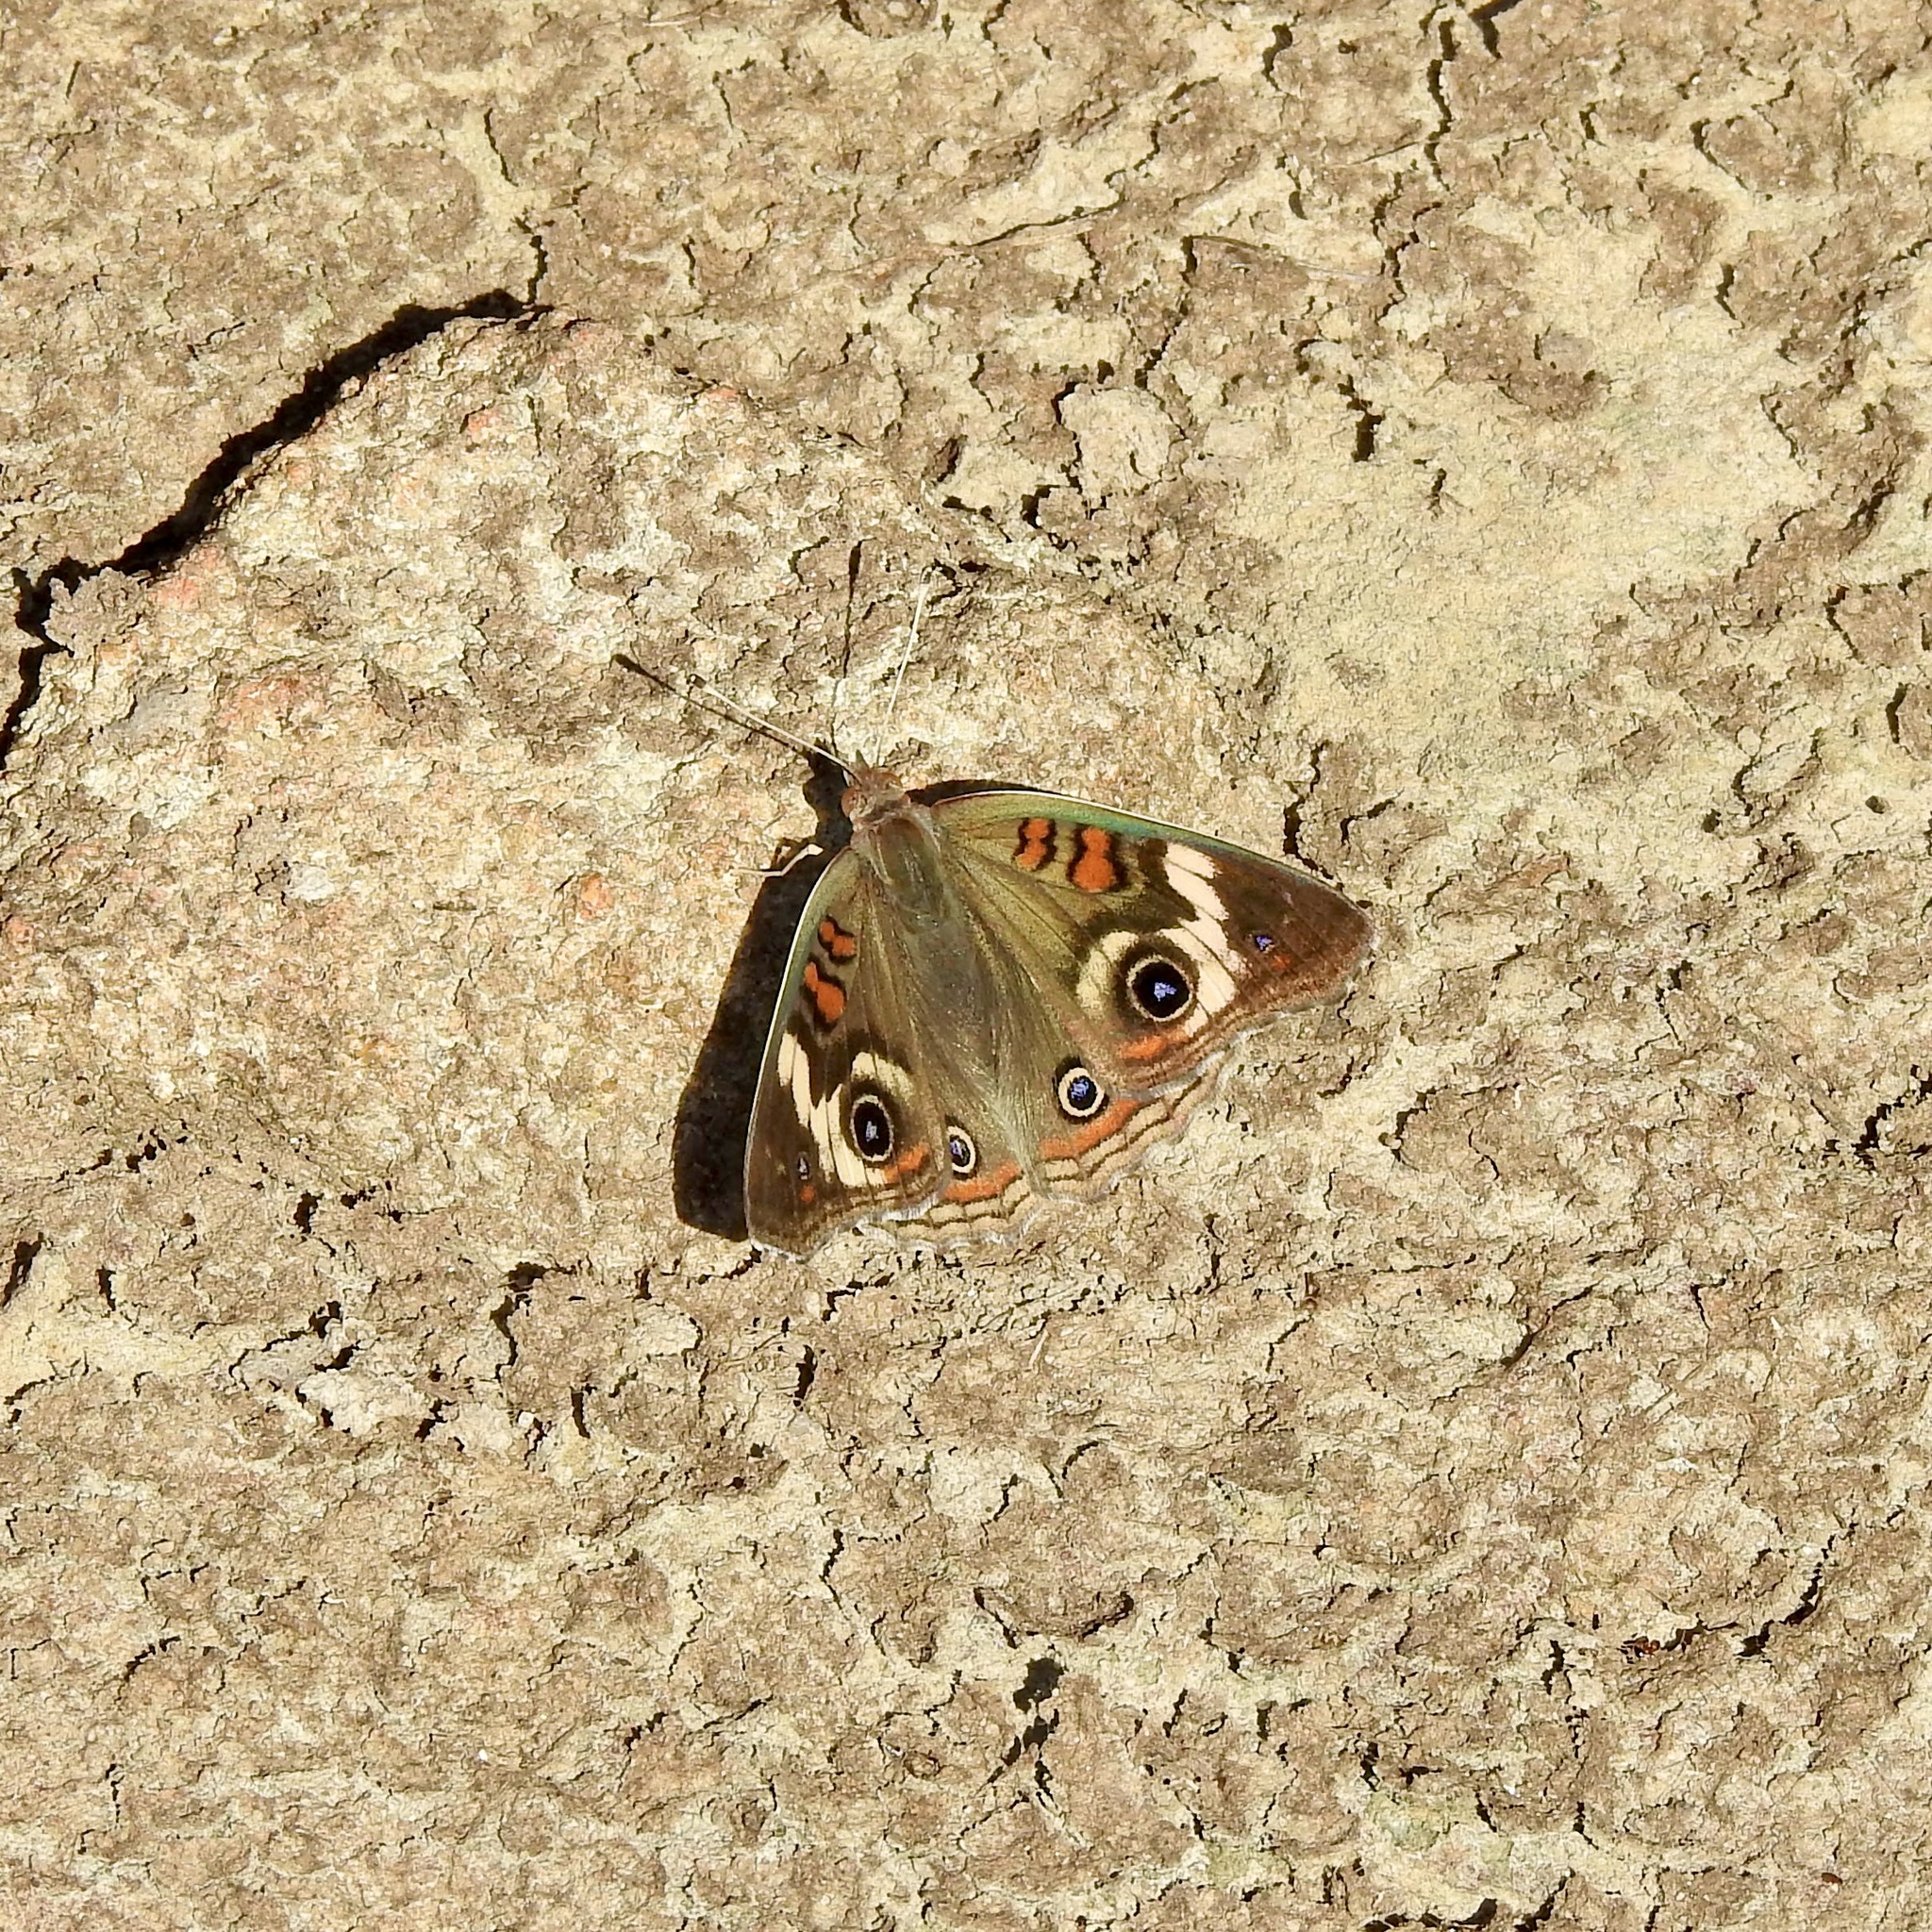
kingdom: Animalia
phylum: Arthropoda
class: Insecta
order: Lepidoptera
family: Nymphalidae
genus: Junonia
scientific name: Junonia coenia
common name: Common buckeye
